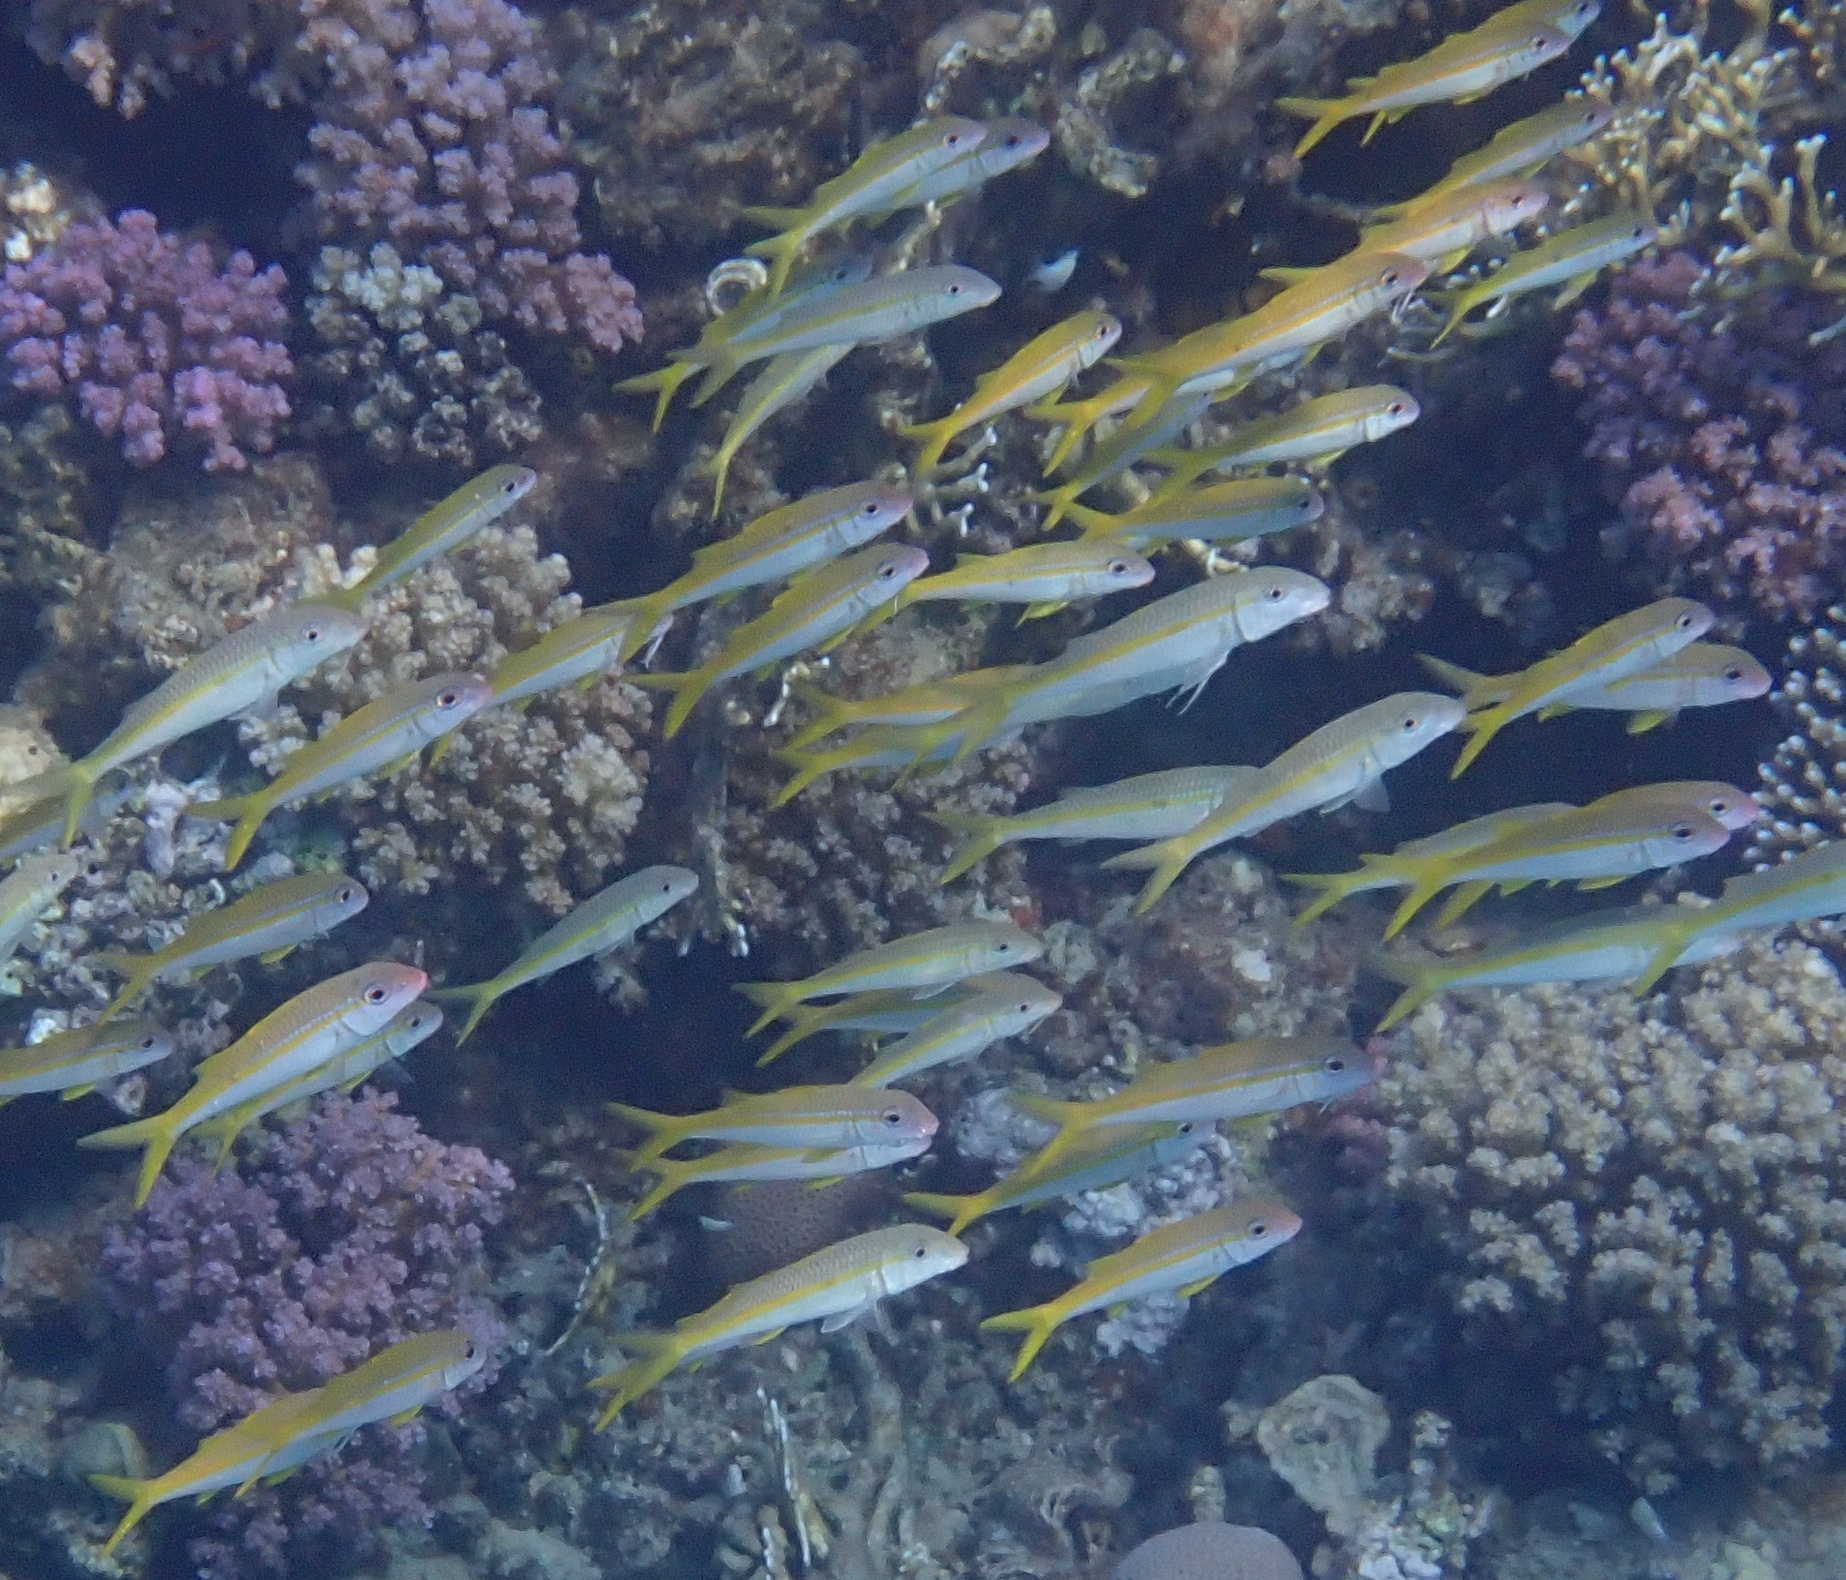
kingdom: Animalia
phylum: Chordata
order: Perciformes
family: Mullidae
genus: Mulloidichthys
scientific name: Mulloidichthys vanicolensis
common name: Yellowfin goatfish
